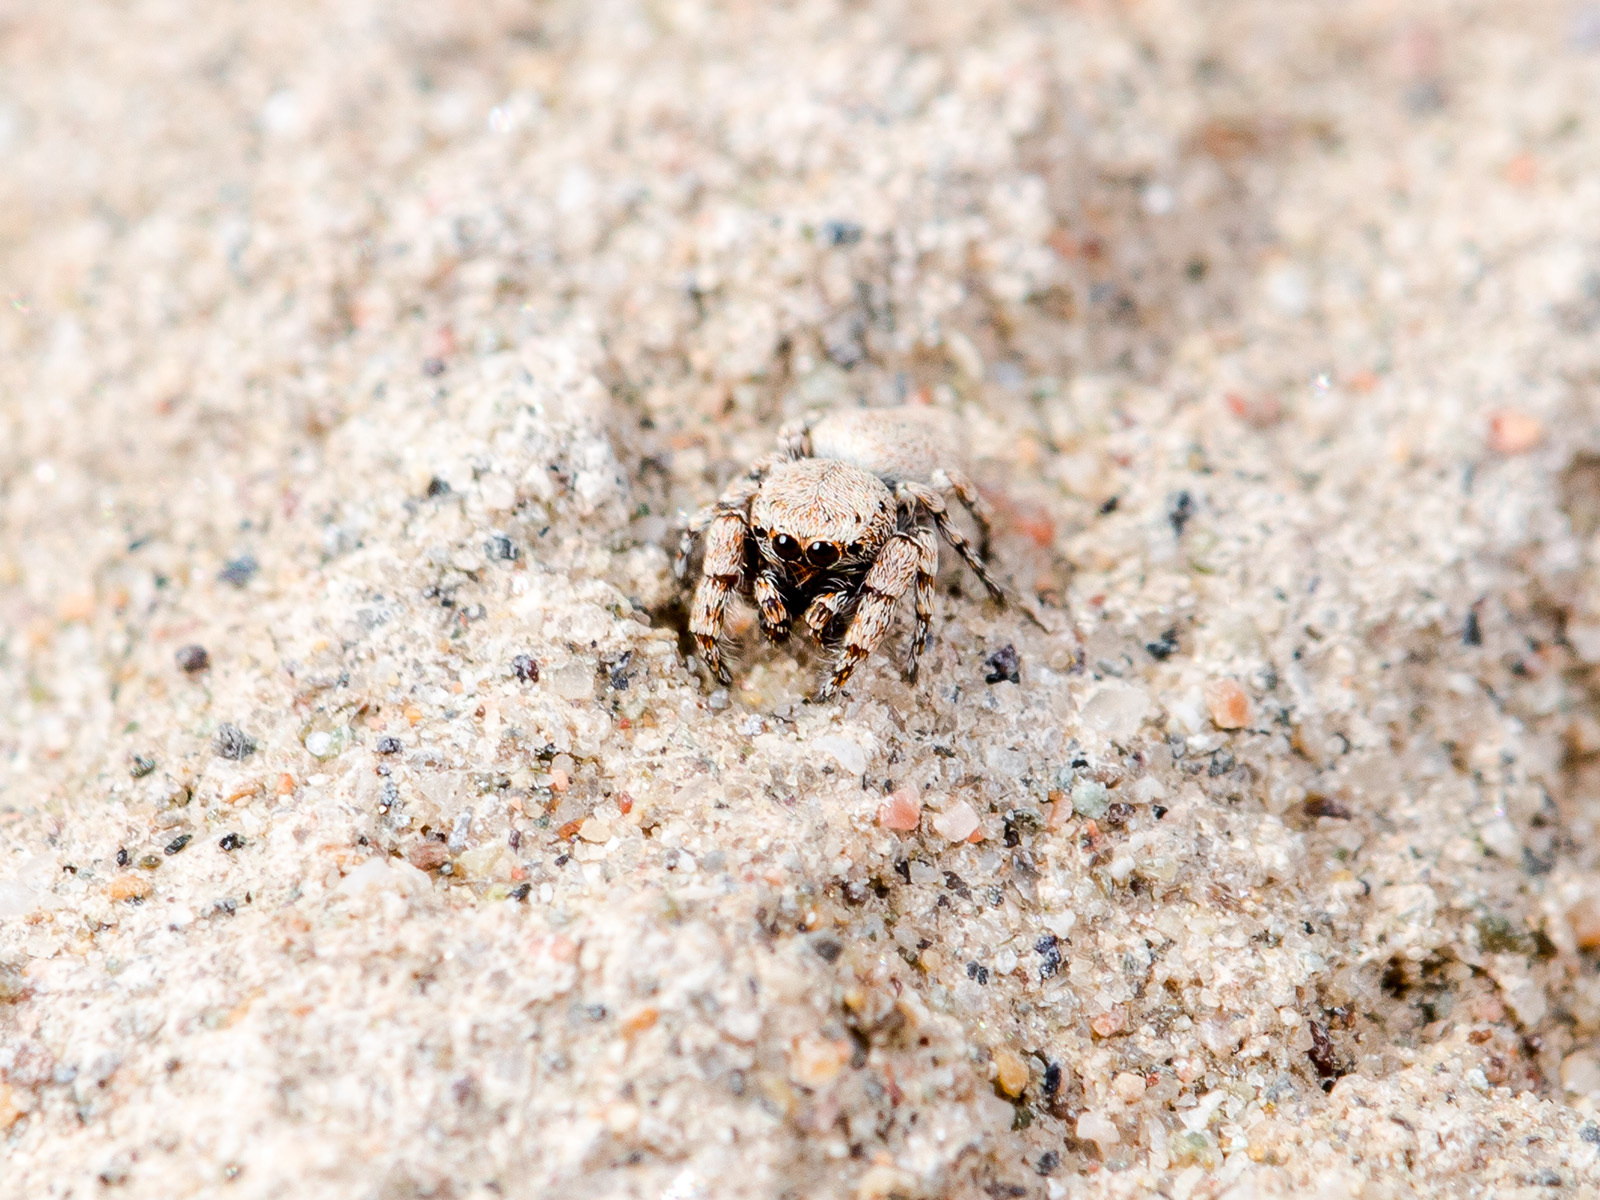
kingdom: Animalia
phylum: Arthropoda
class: Arachnida
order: Araneae
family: Salticidae
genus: Pseudomogrus
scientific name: Pseudomogrus bactrianus
